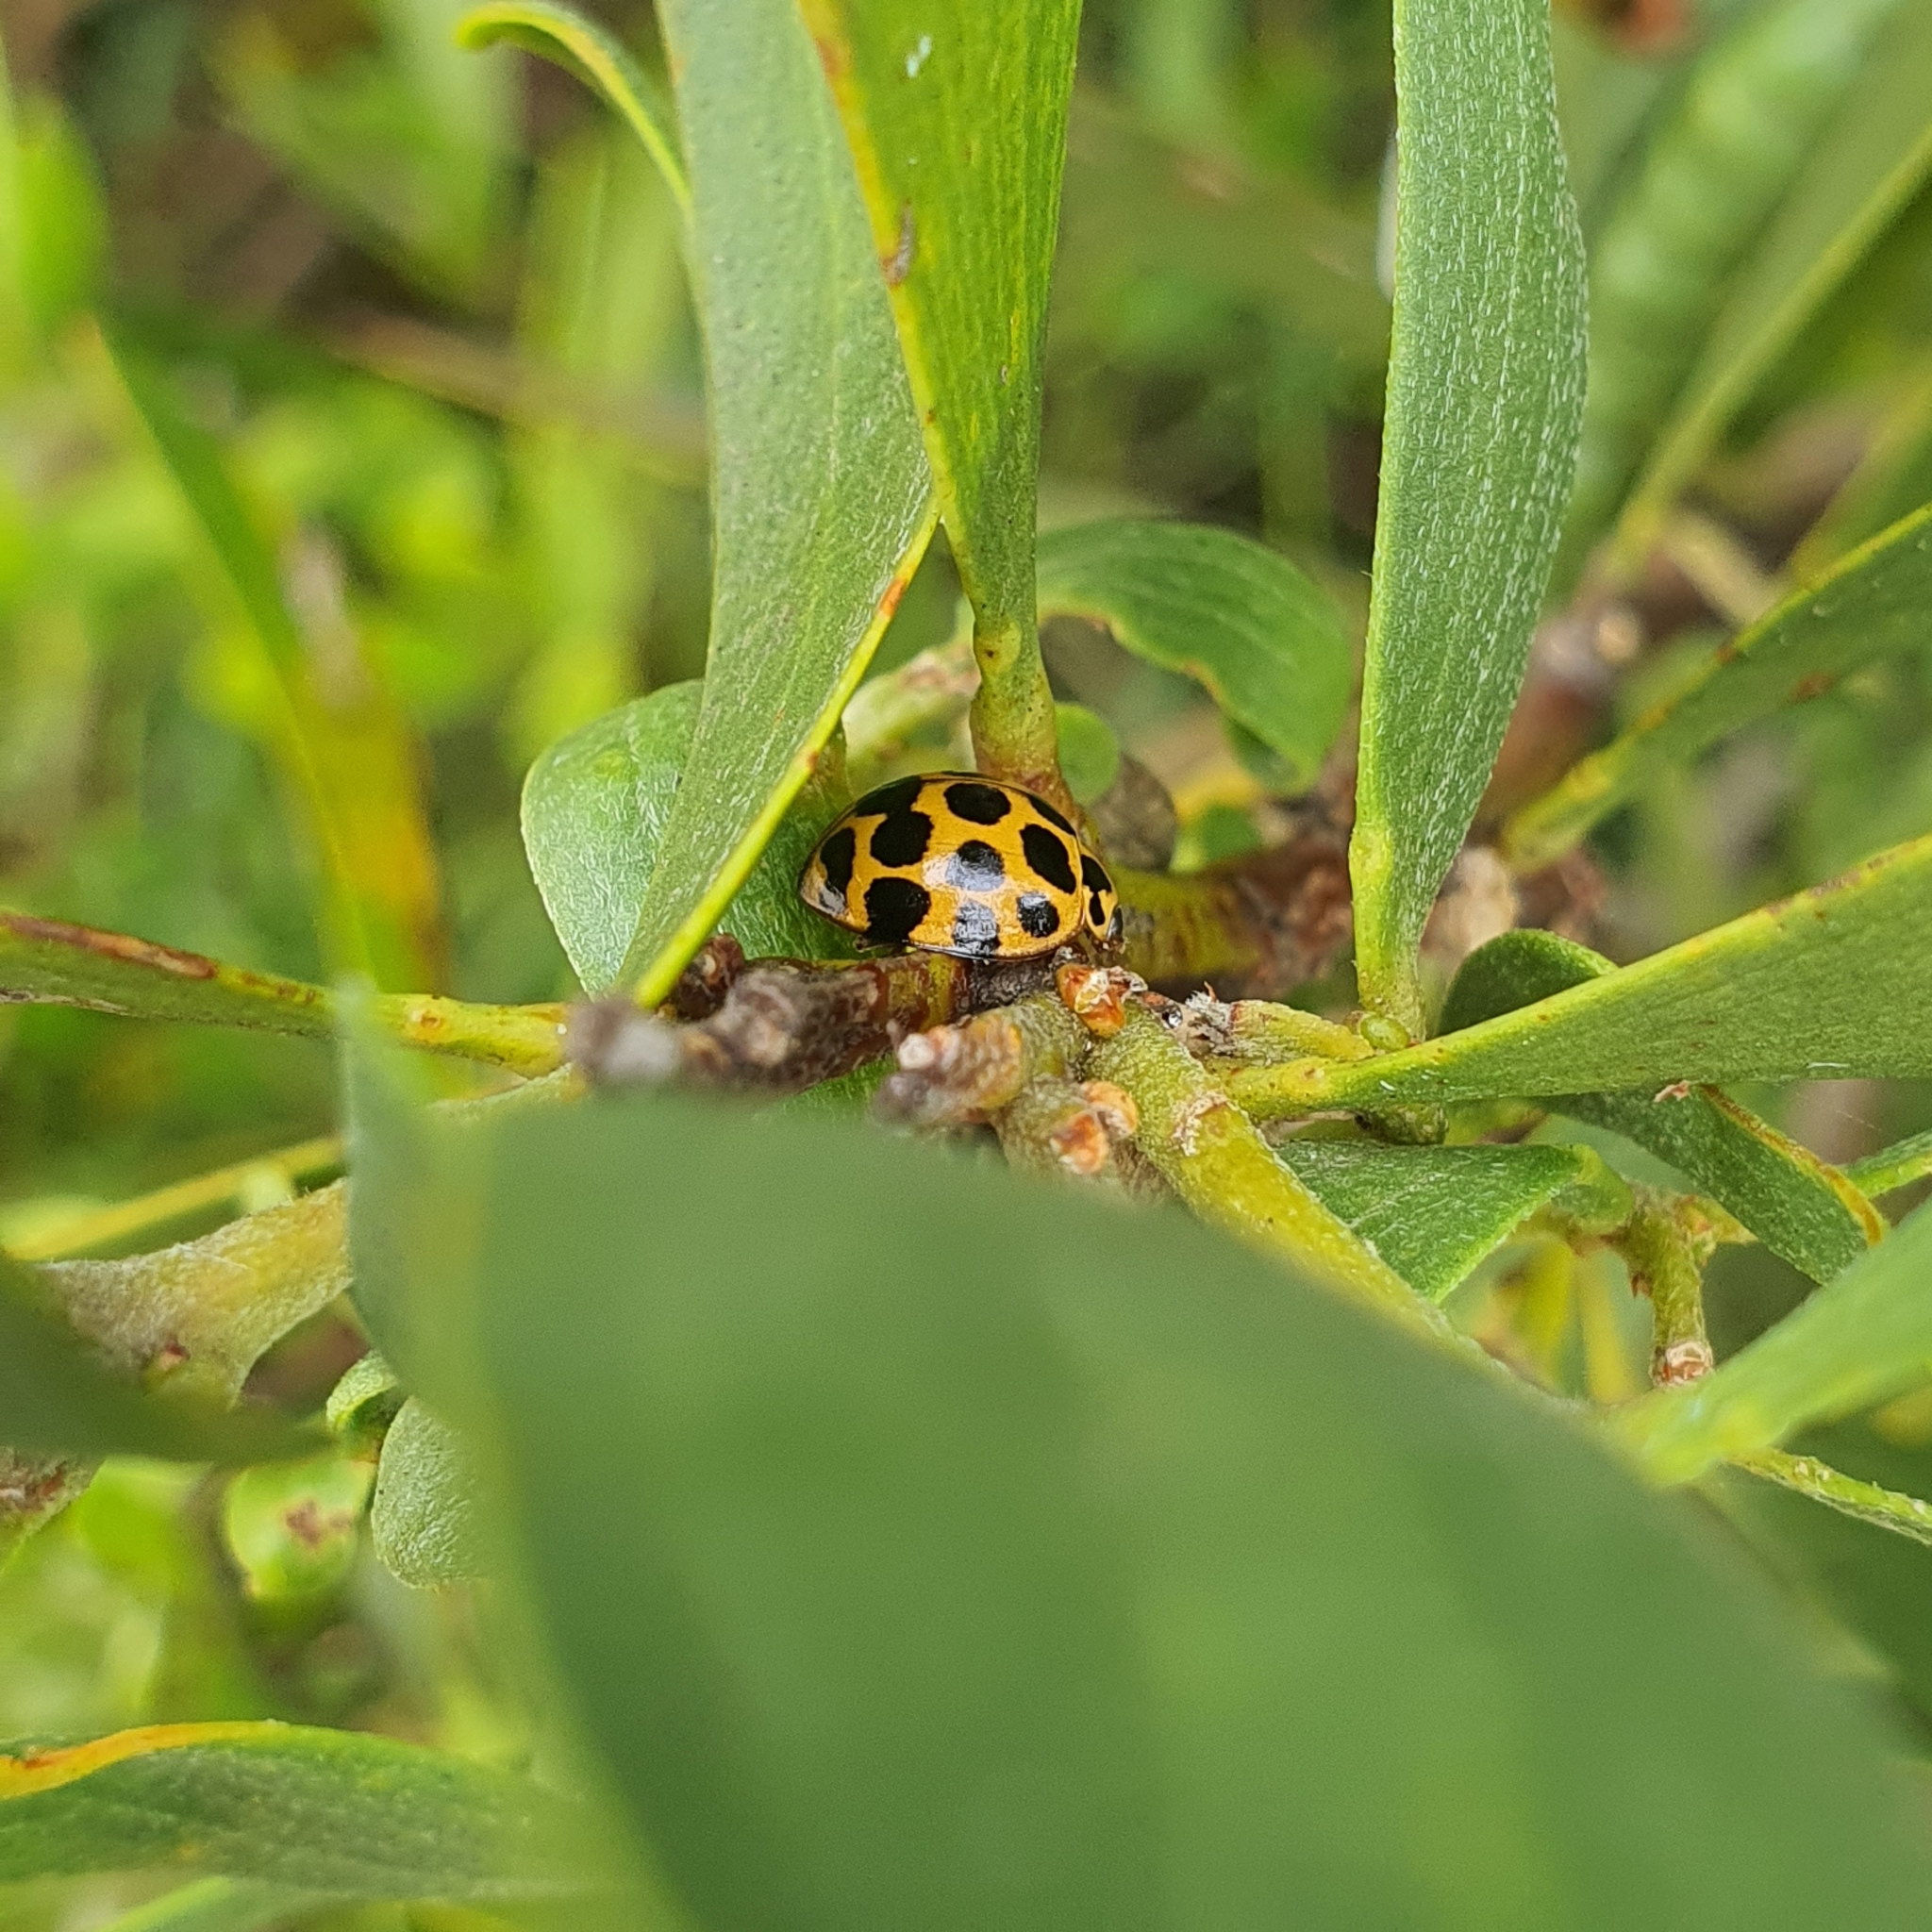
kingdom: Animalia
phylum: Arthropoda
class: Insecta
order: Coleoptera
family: Coccinellidae
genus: Harmonia
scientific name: Harmonia conformis
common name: Common spotted ladybird beetle
